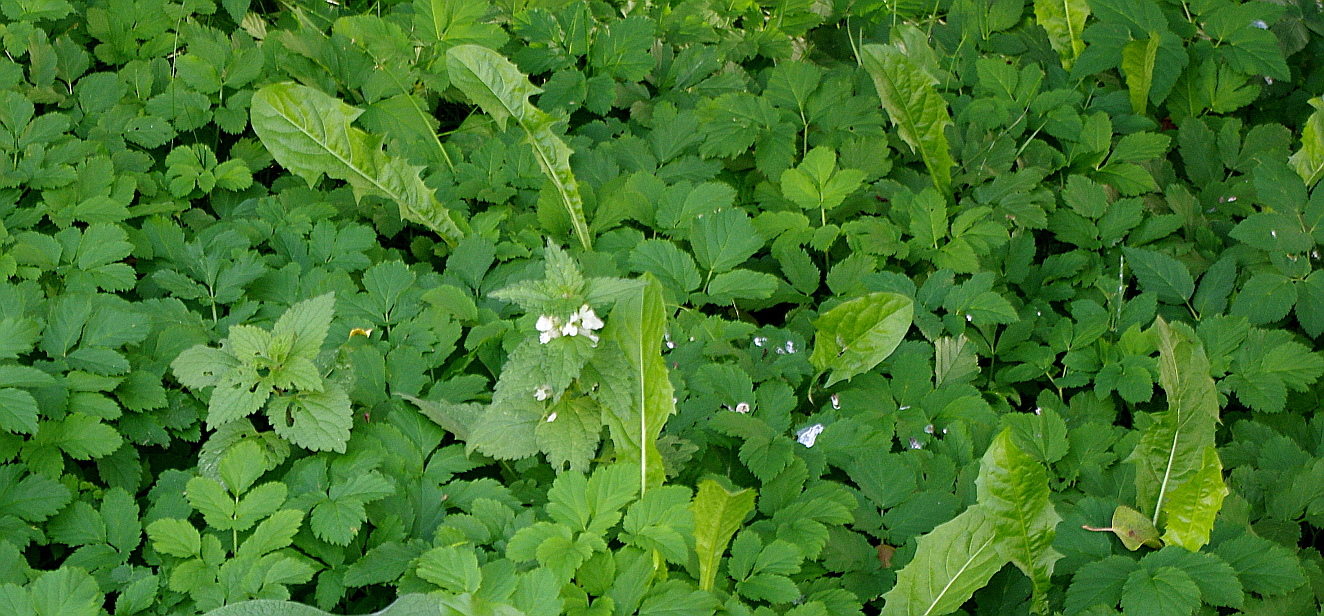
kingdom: Plantae
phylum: Tracheophyta
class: Magnoliopsida
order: Lamiales
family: Lamiaceae
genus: Lamium
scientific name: Lamium album
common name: White dead-nettle
